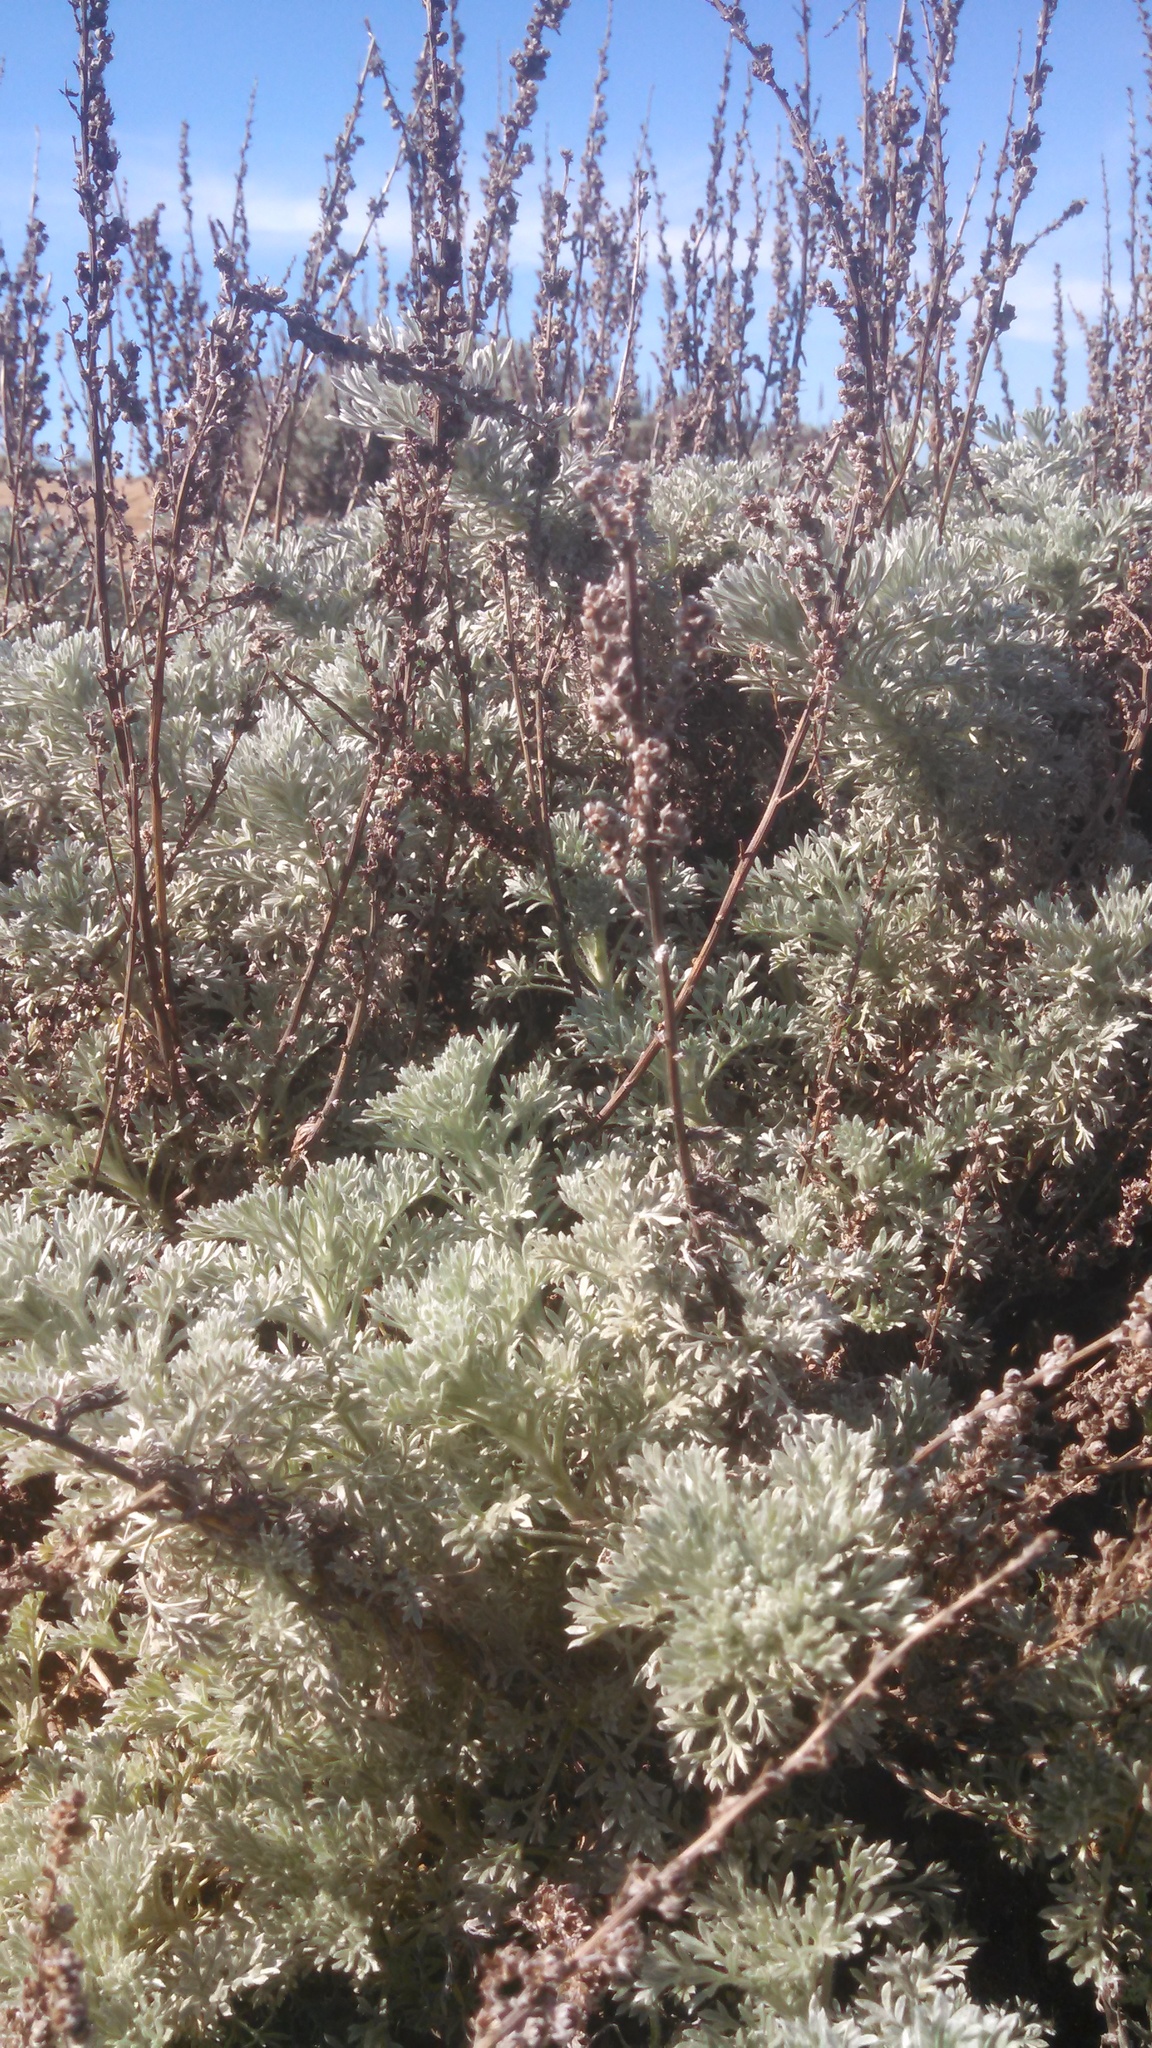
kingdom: Plantae
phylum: Tracheophyta
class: Magnoliopsida
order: Asterales
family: Asteraceae
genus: Artemisia
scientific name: Artemisia pycnocephala
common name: Coastal sagewort
